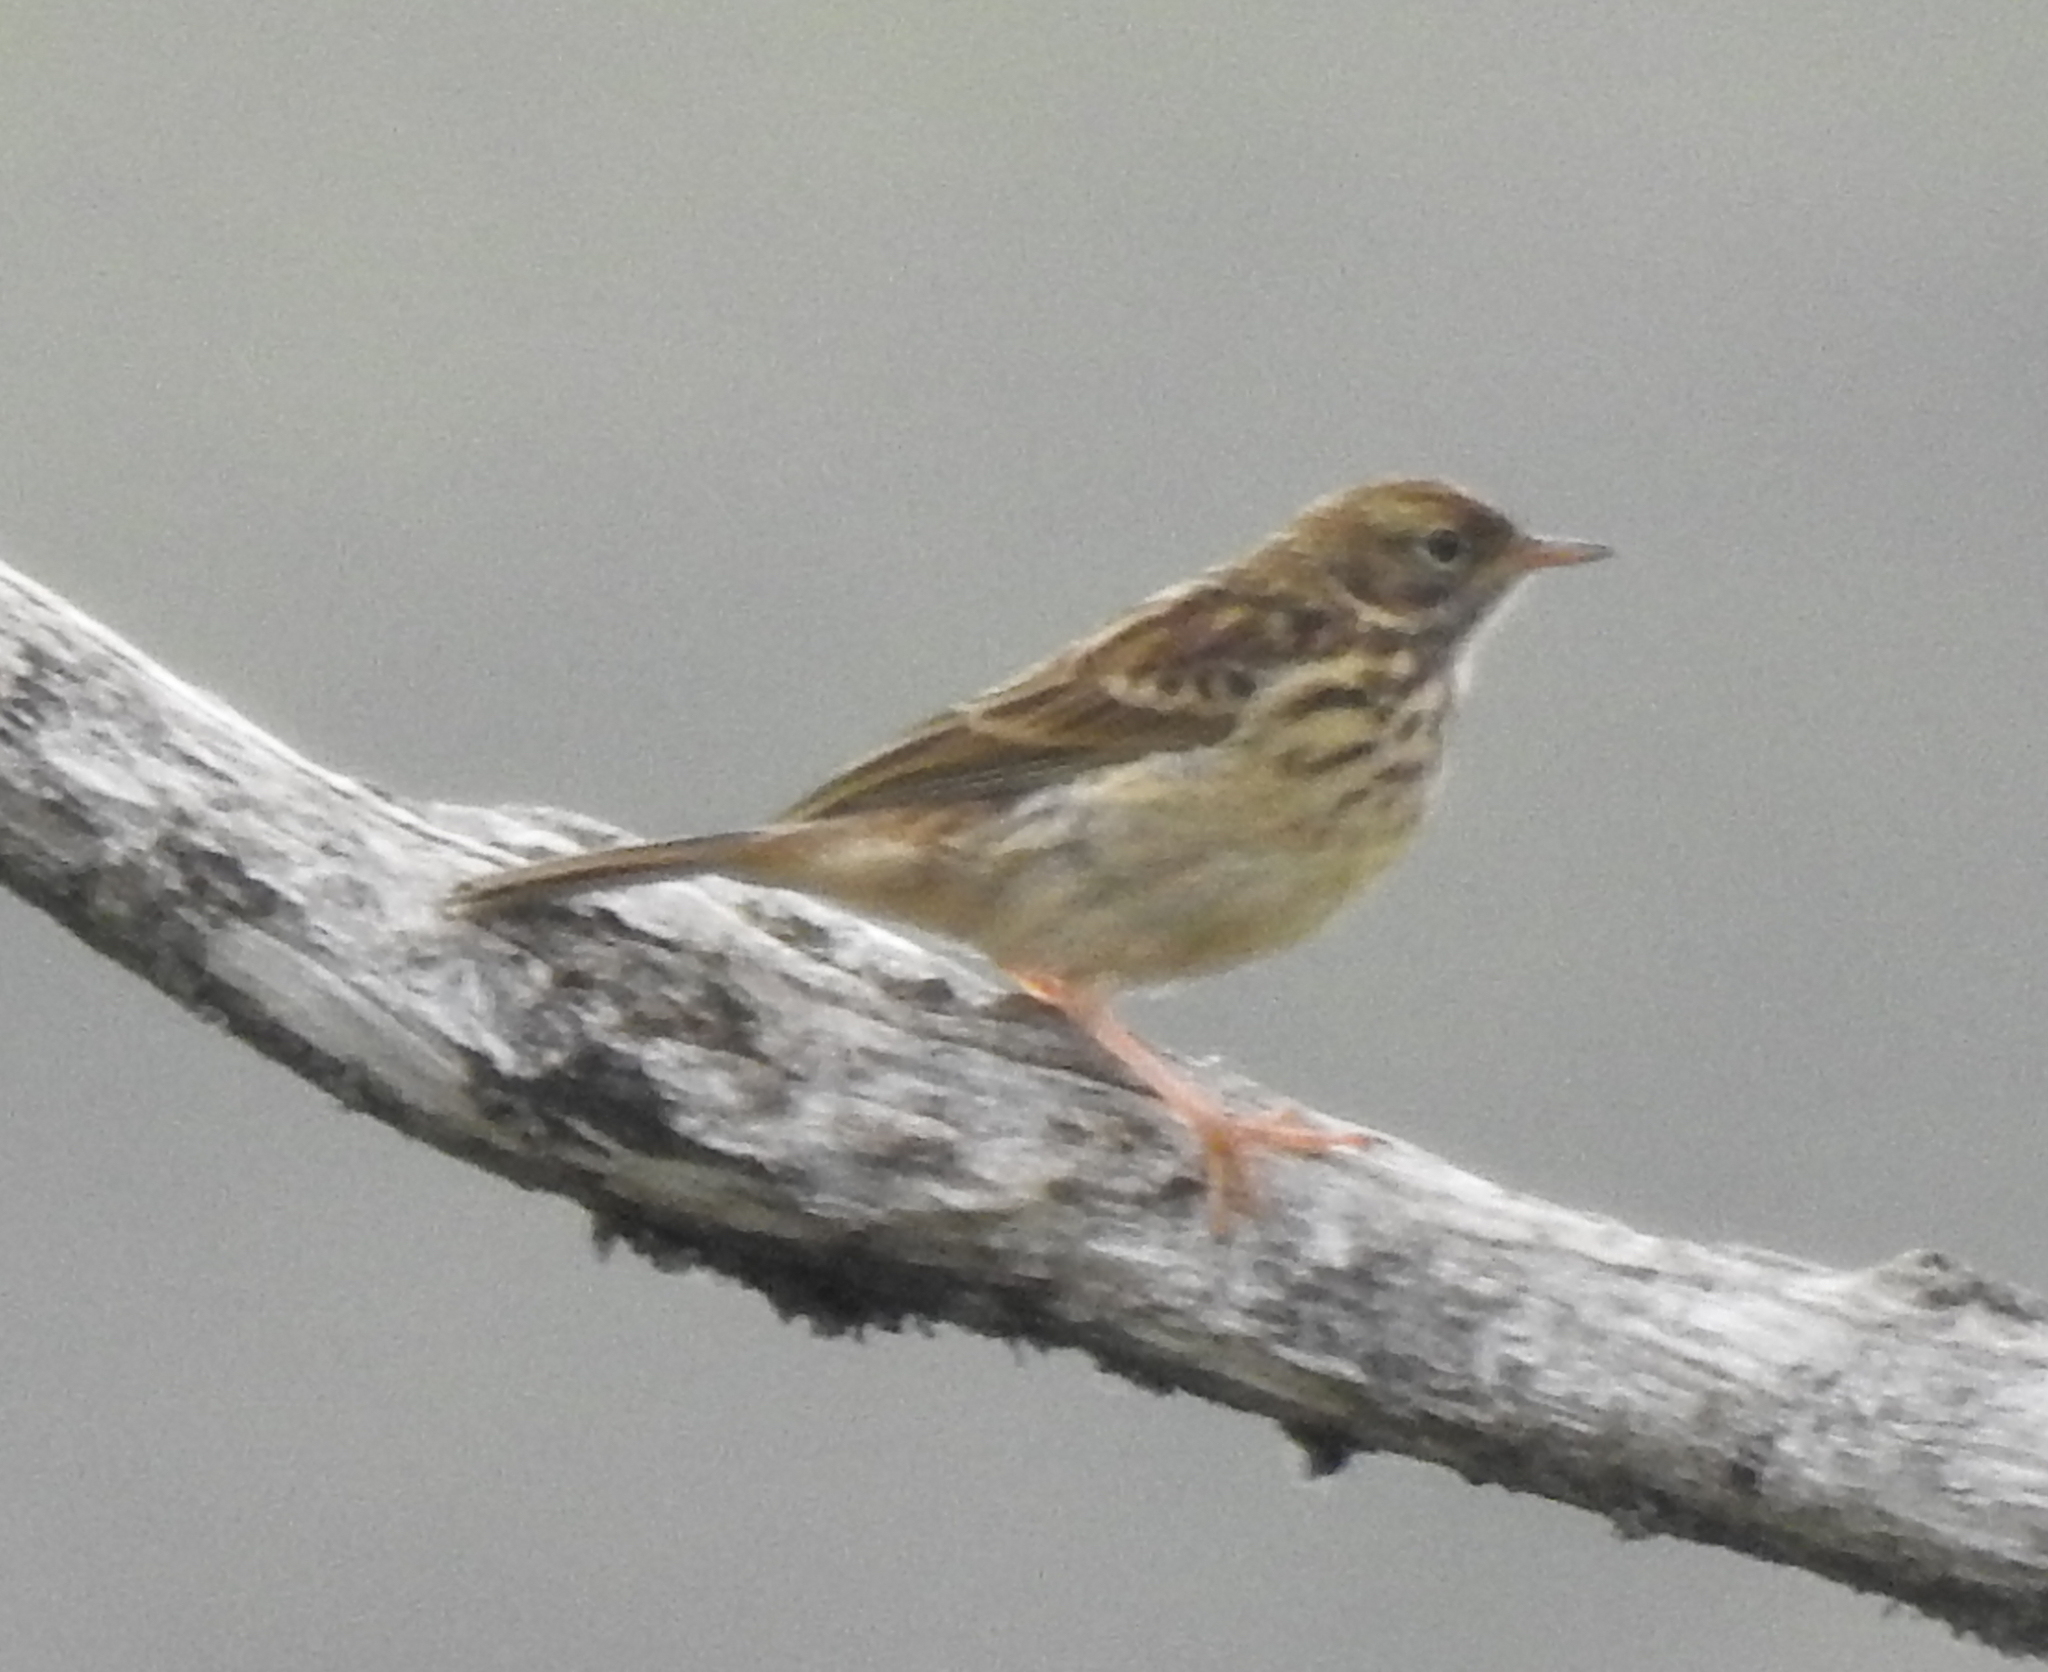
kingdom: Animalia
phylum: Chordata
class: Aves
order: Passeriformes
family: Motacillidae
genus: Anthus
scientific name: Anthus pratensis
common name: Meadow pipit
